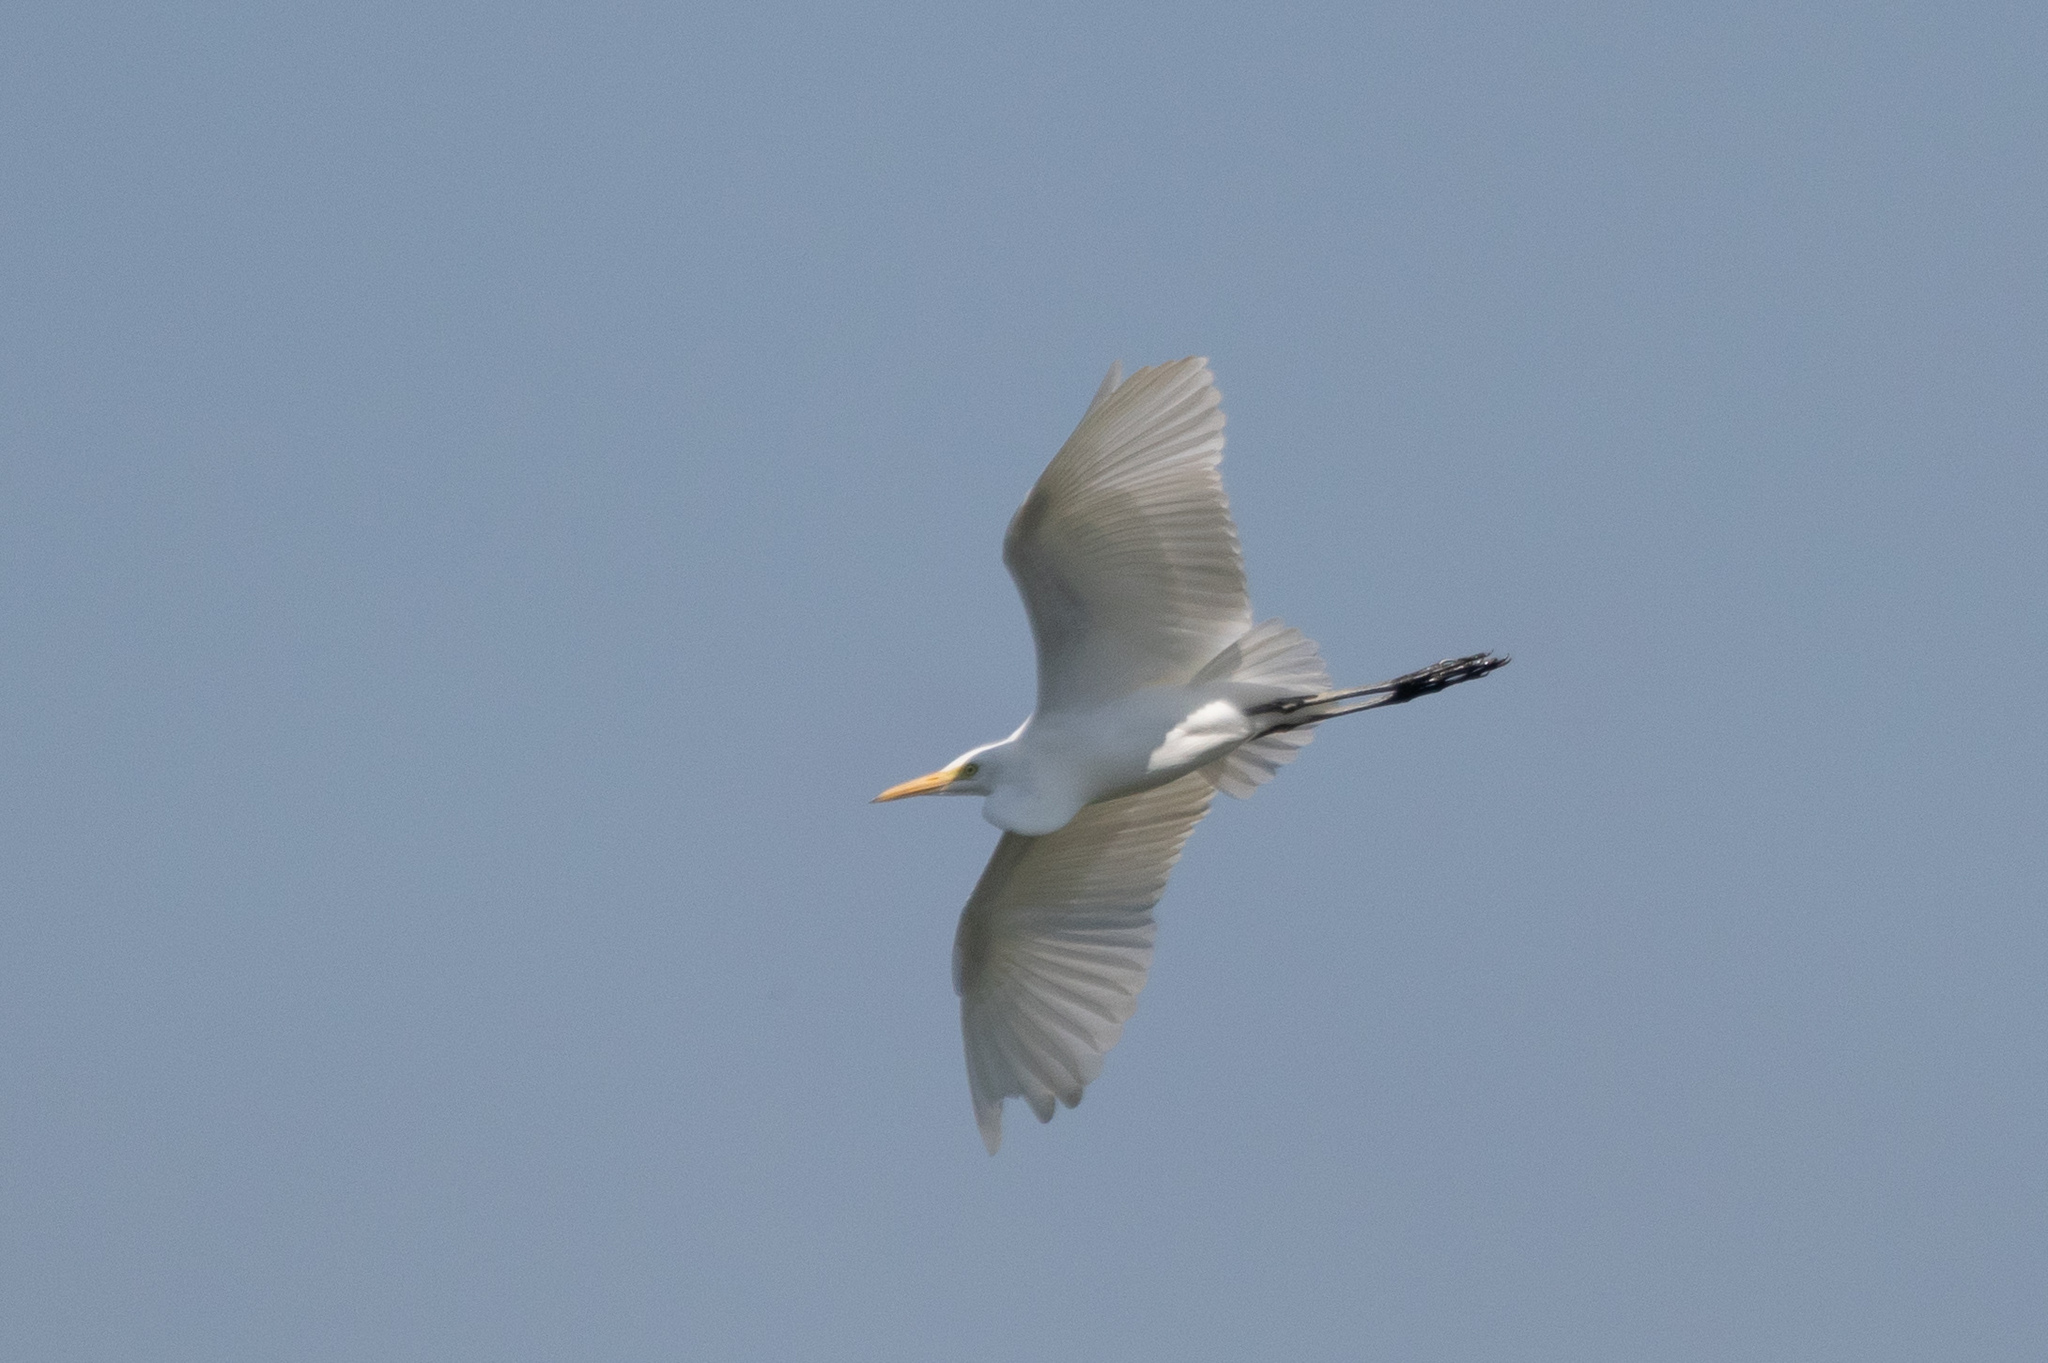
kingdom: Animalia
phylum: Chordata
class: Aves
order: Pelecaniformes
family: Ardeidae
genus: Egretta
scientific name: Egretta intermedia
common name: Intermediate egret
